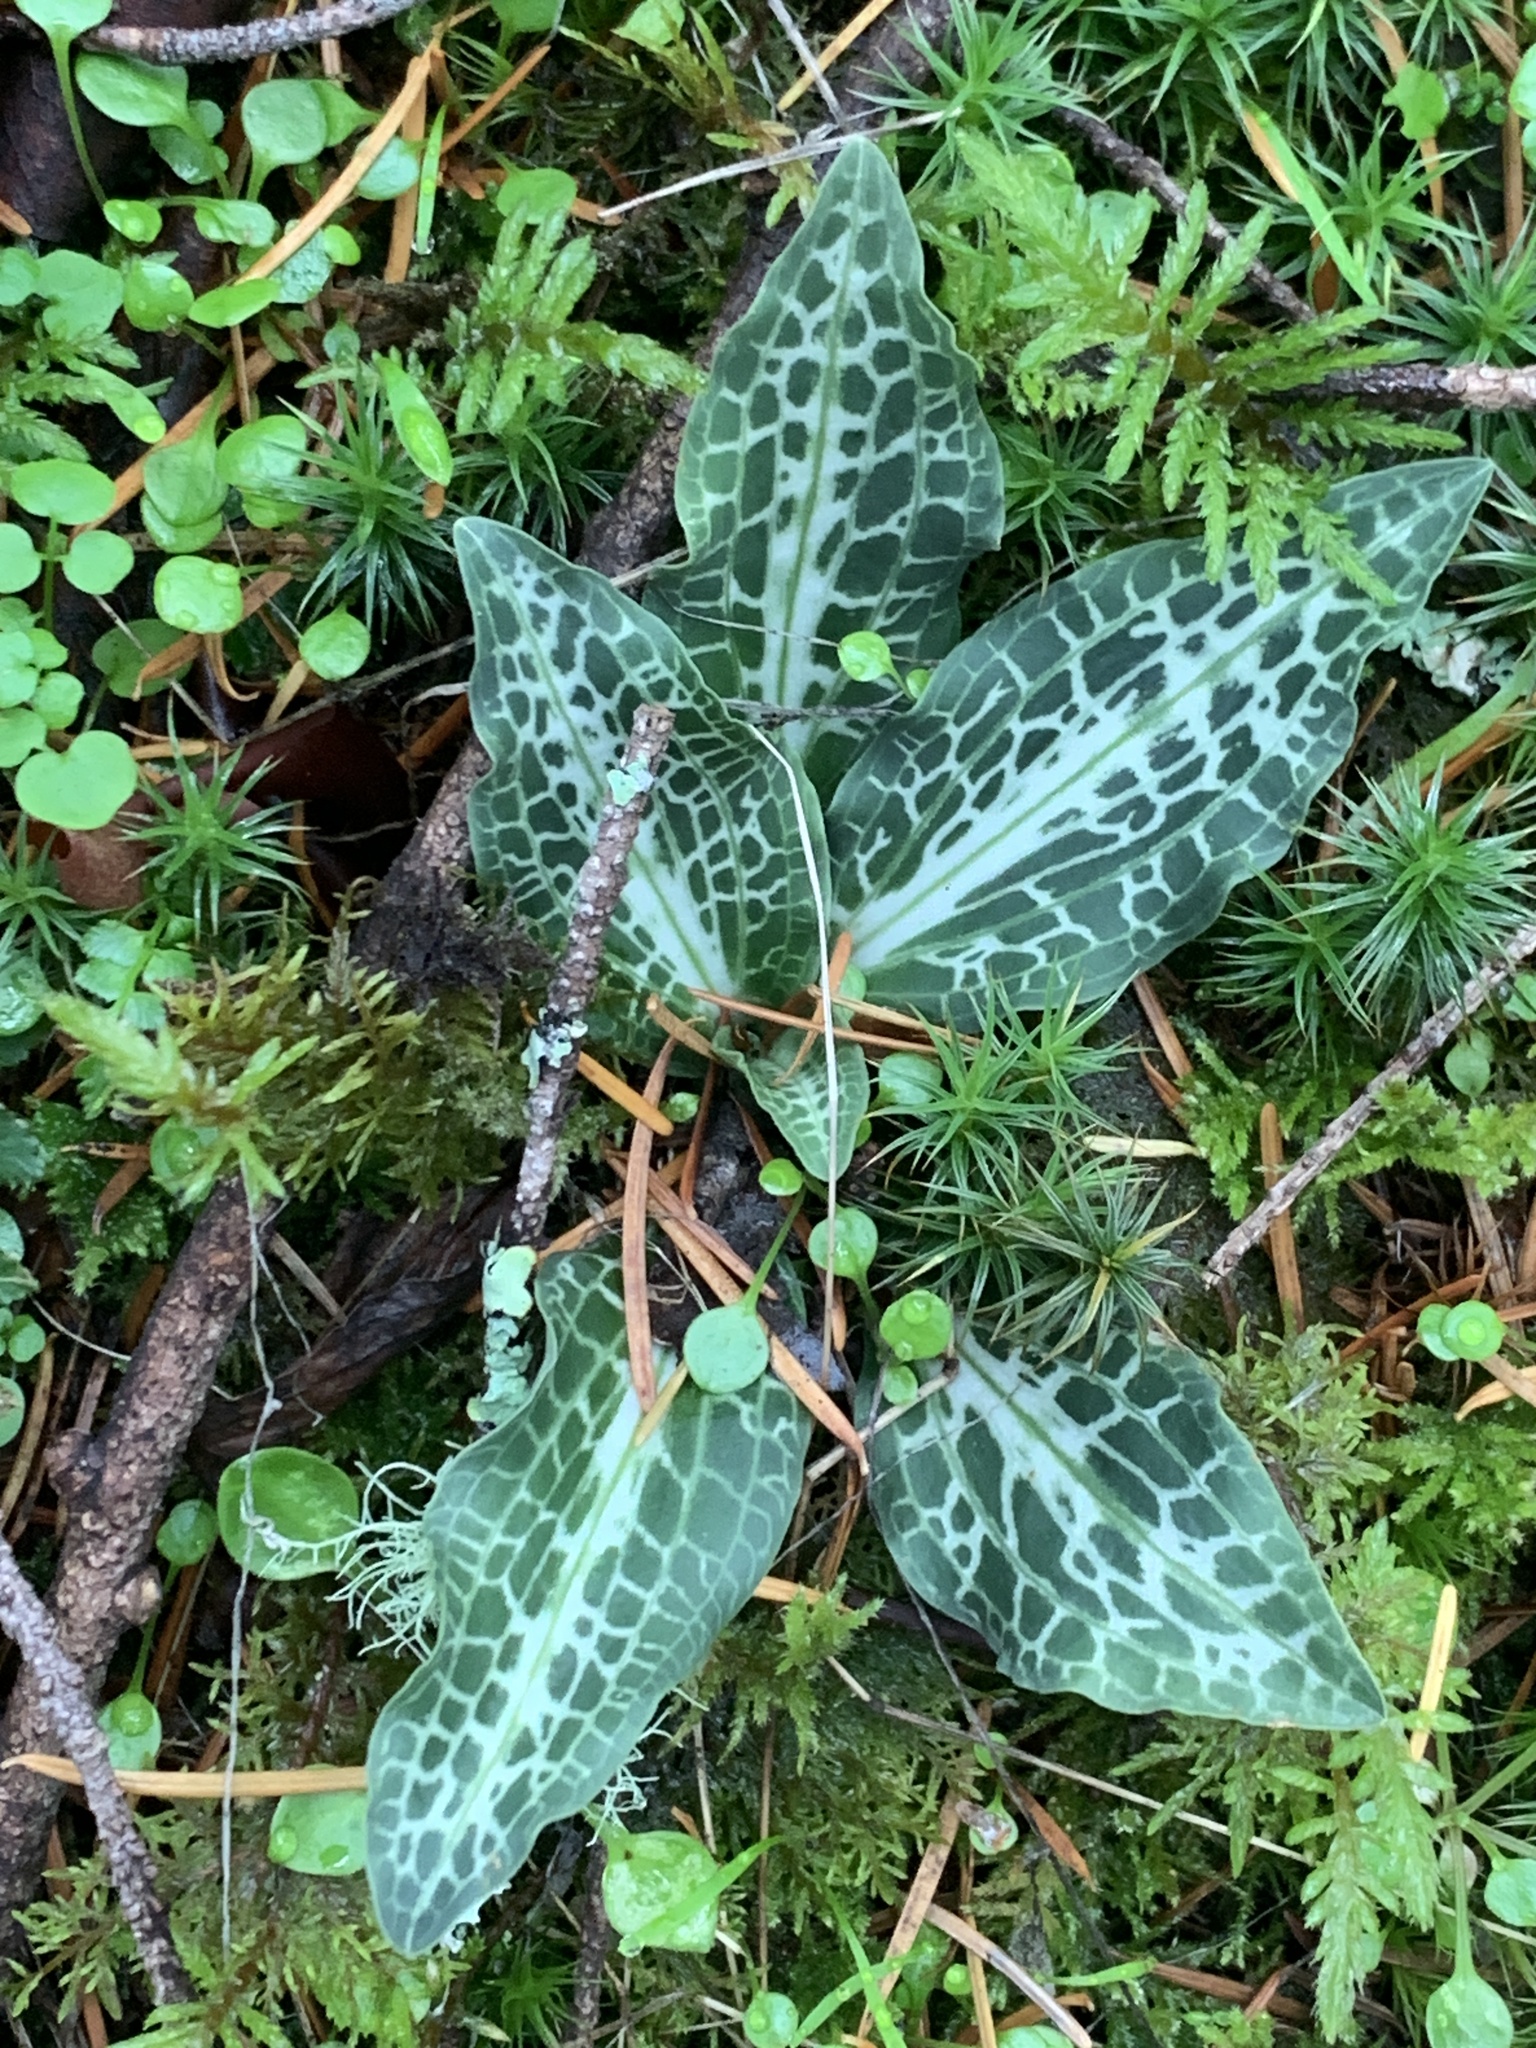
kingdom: Plantae
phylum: Tracheophyta
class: Liliopsida
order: Asparagales
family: Orchidaceae
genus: Goodyera
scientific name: Goodyera oblongifolia
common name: Giant rattlesnake-plantain
